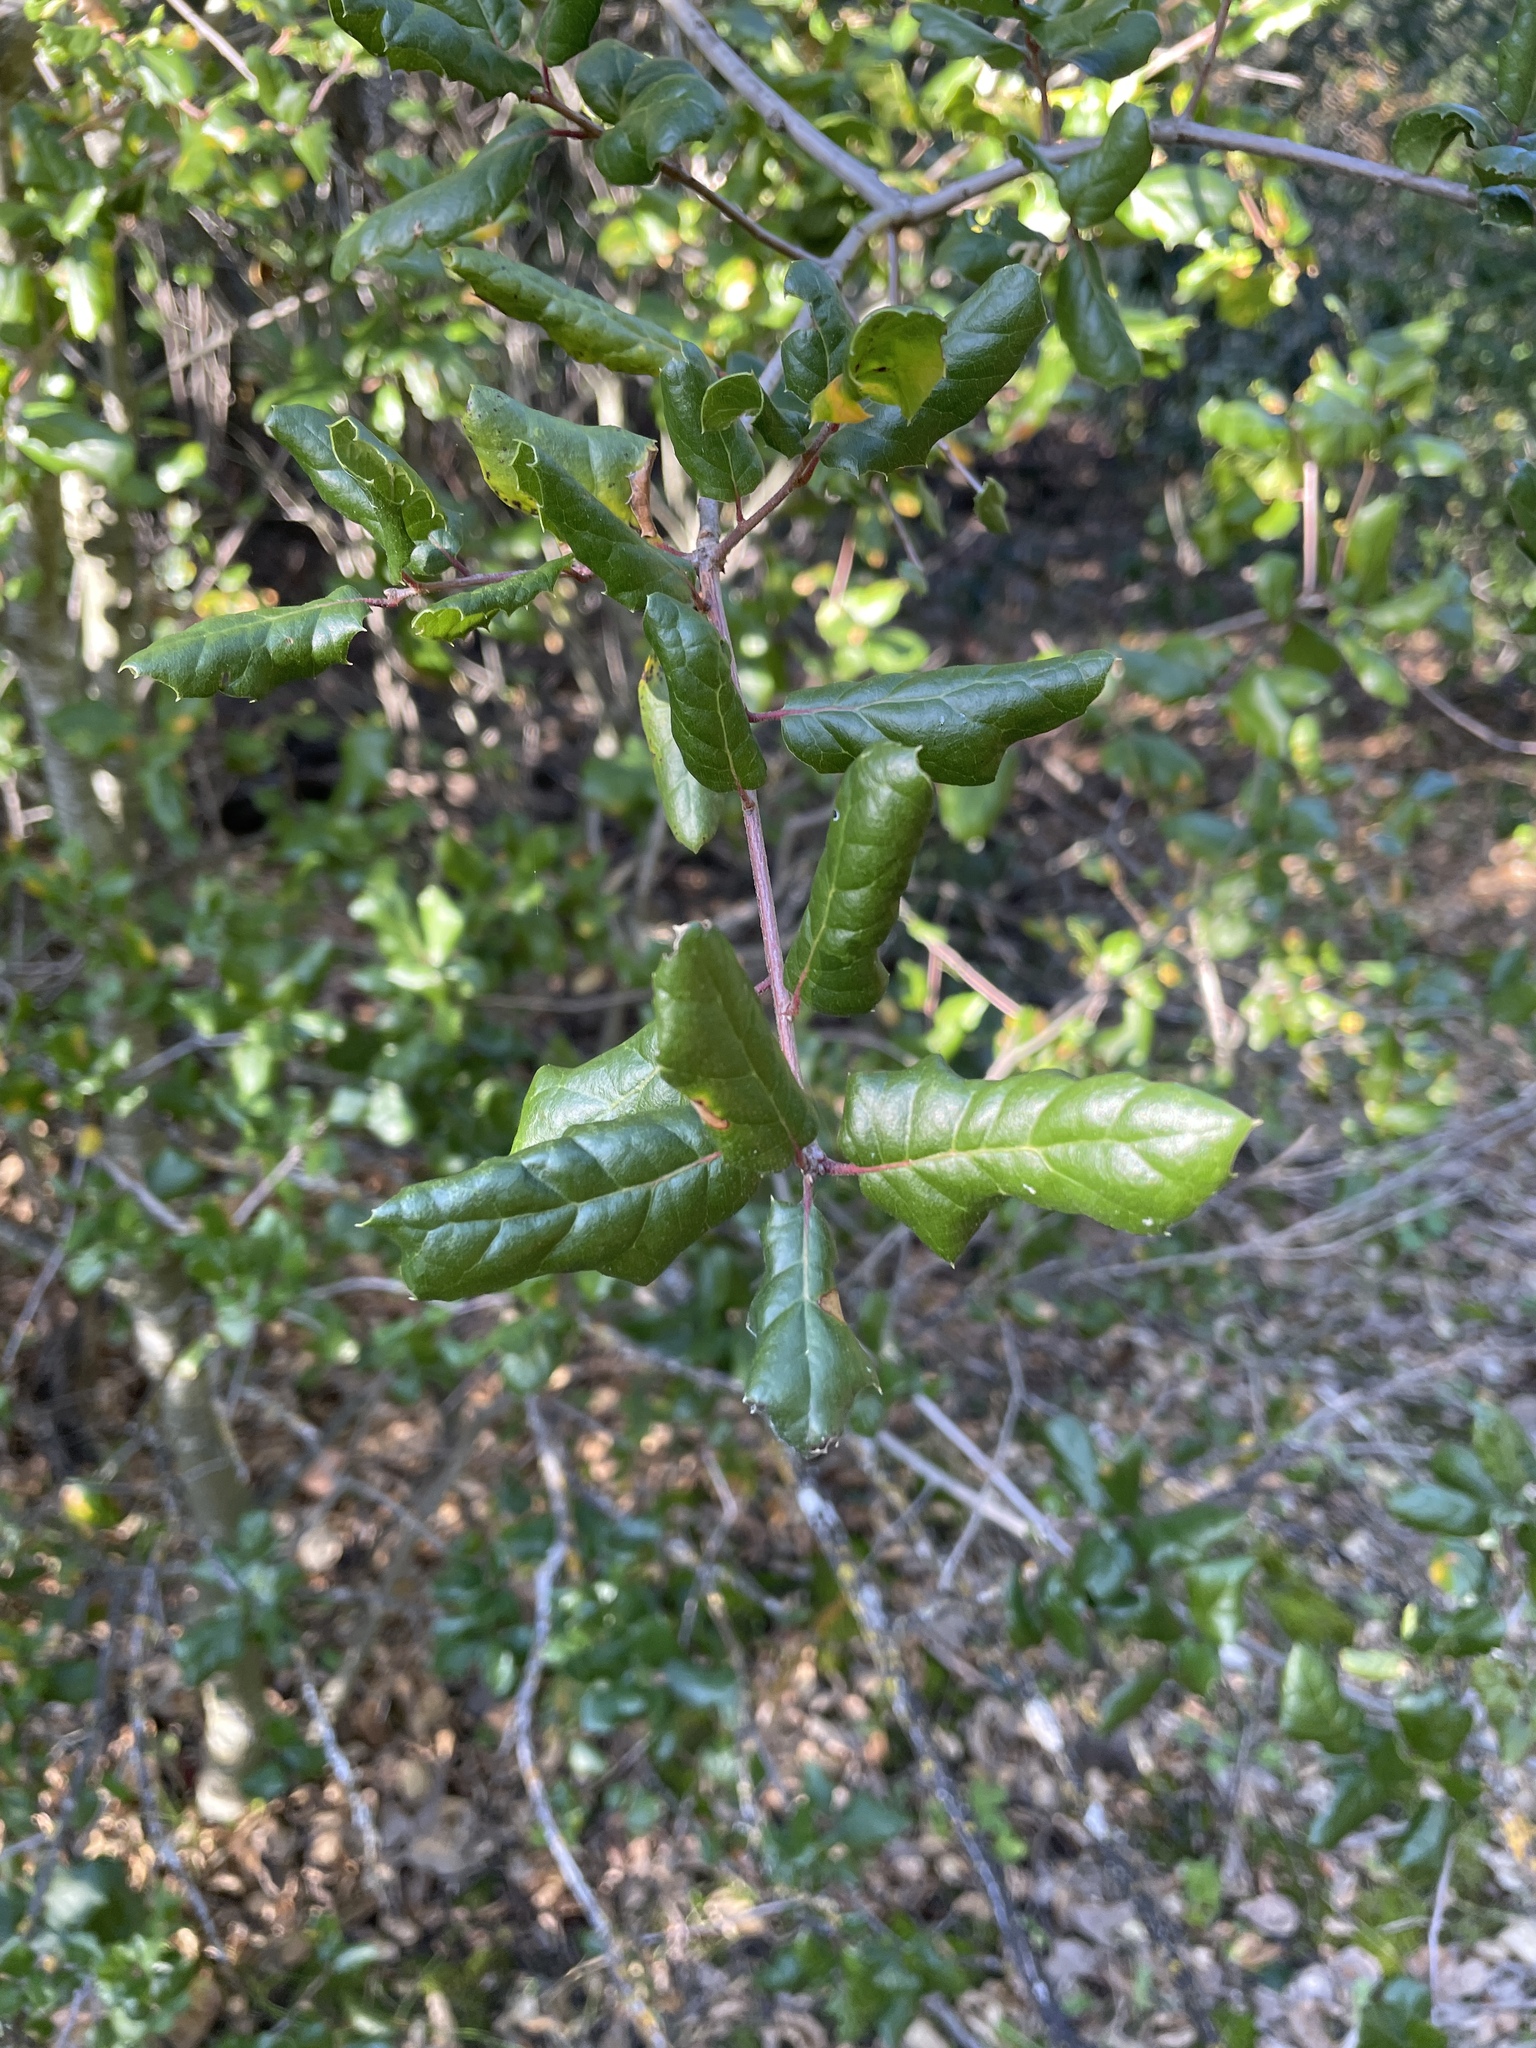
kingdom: Plantae
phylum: Tracheophyta
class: Magnoliopsida
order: Fagales
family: Fagaceae
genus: Quercus
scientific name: Quercus agrifolia
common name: California live oak
